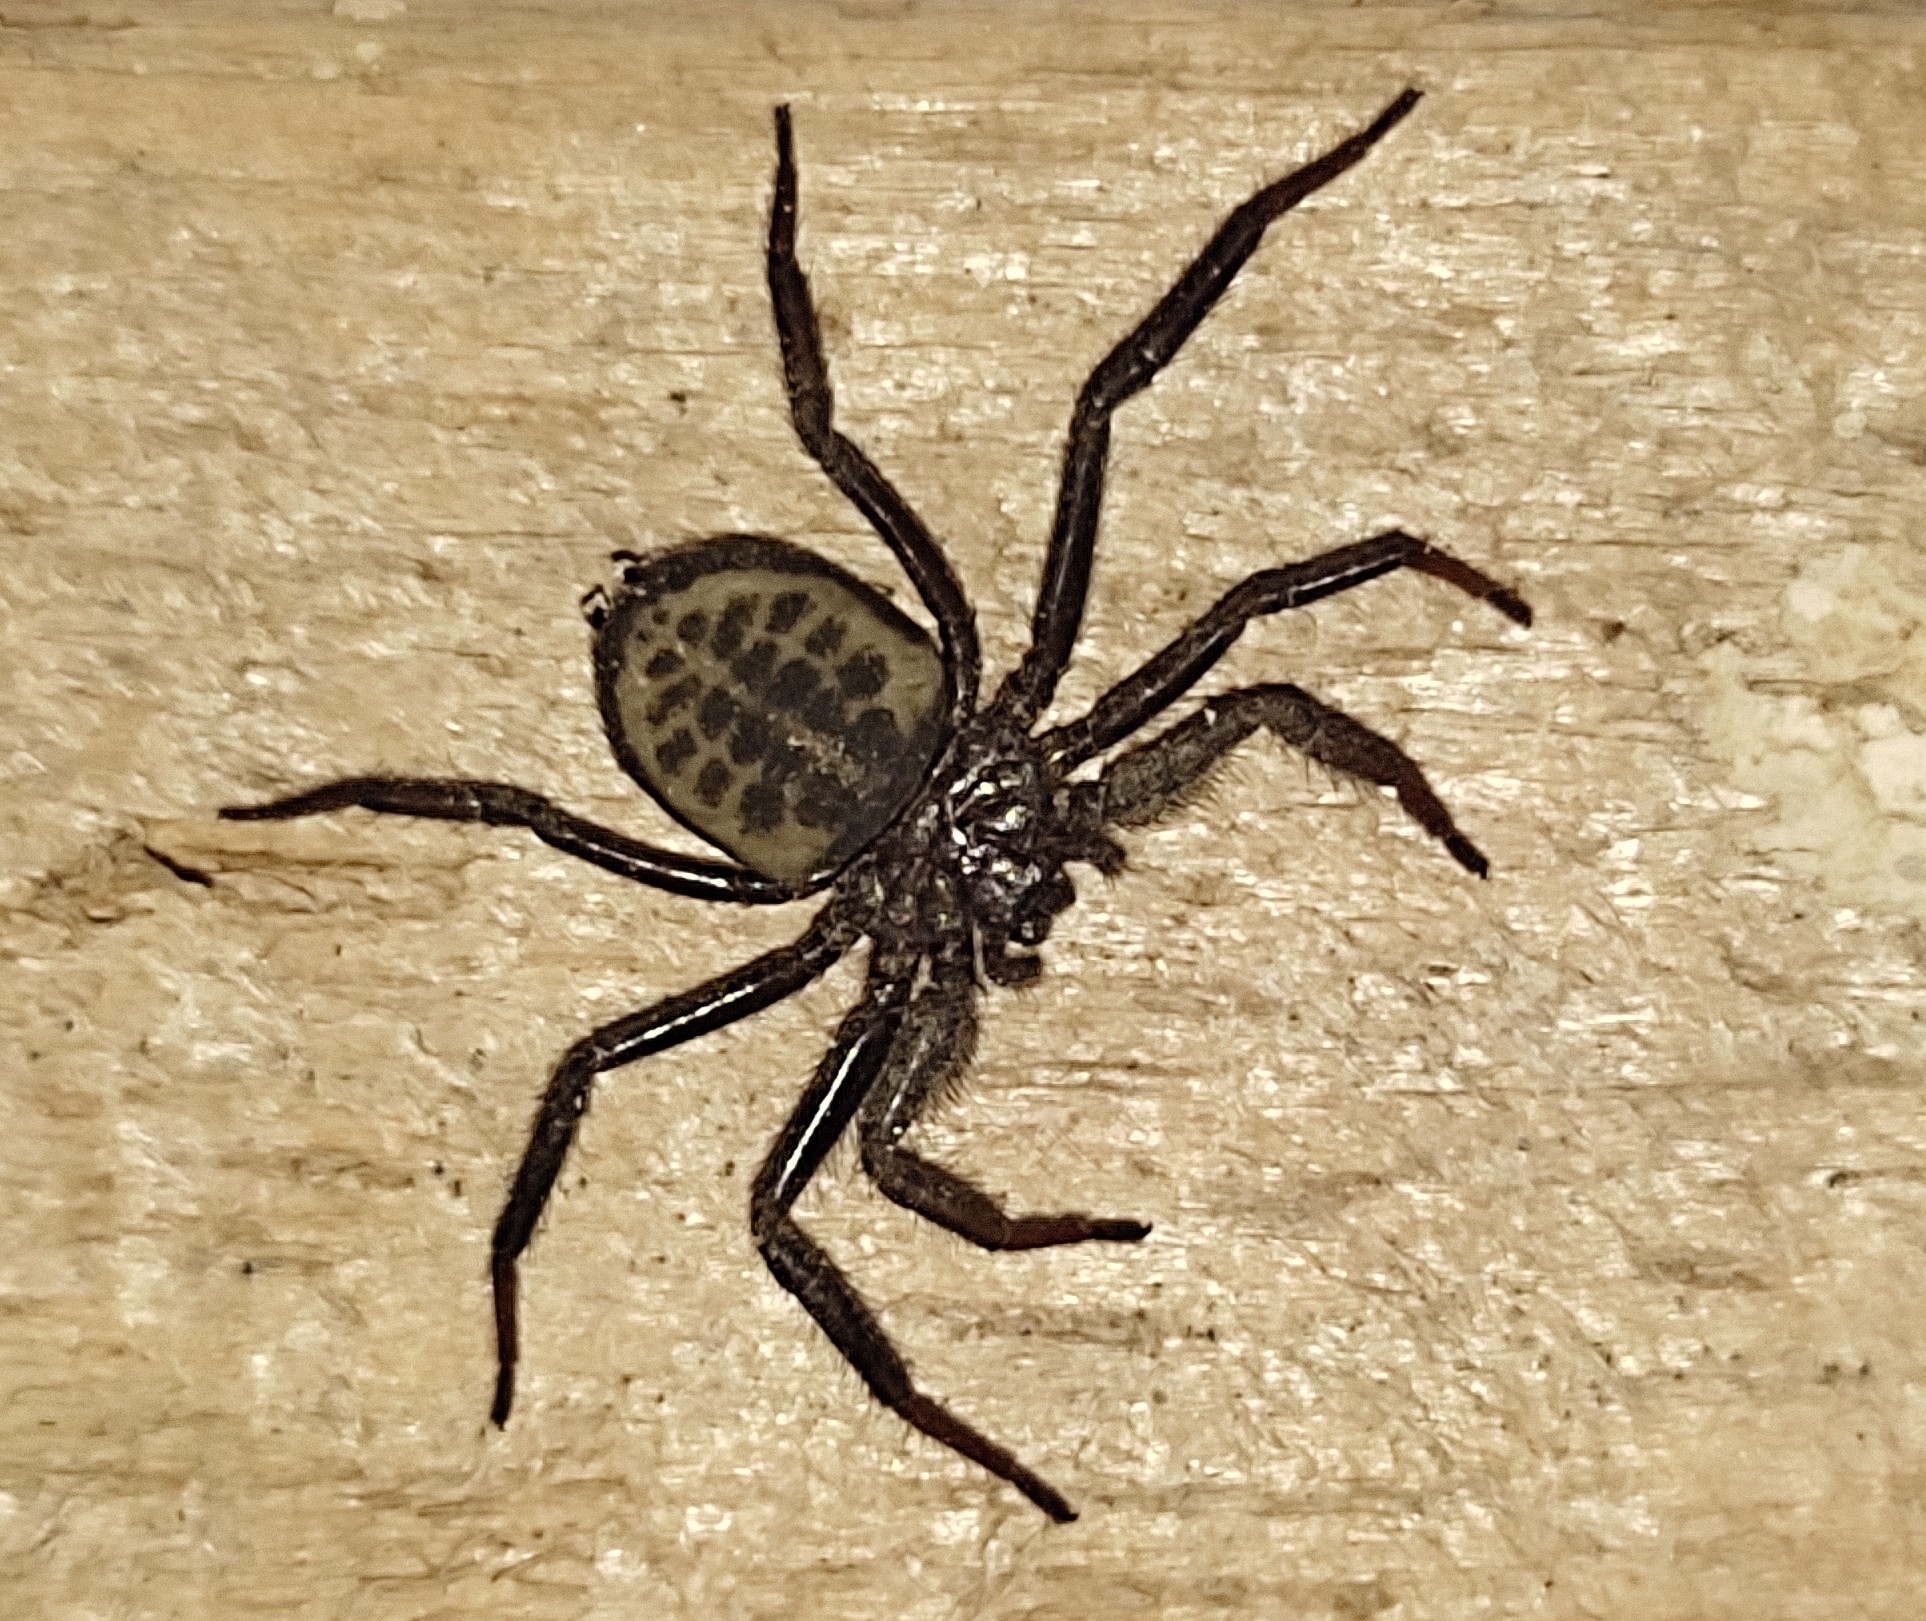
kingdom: Animalia
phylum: Arthropoda
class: Arachnida
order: Araneae
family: Trochanteriidae
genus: Vectius
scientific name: Vectius niger
